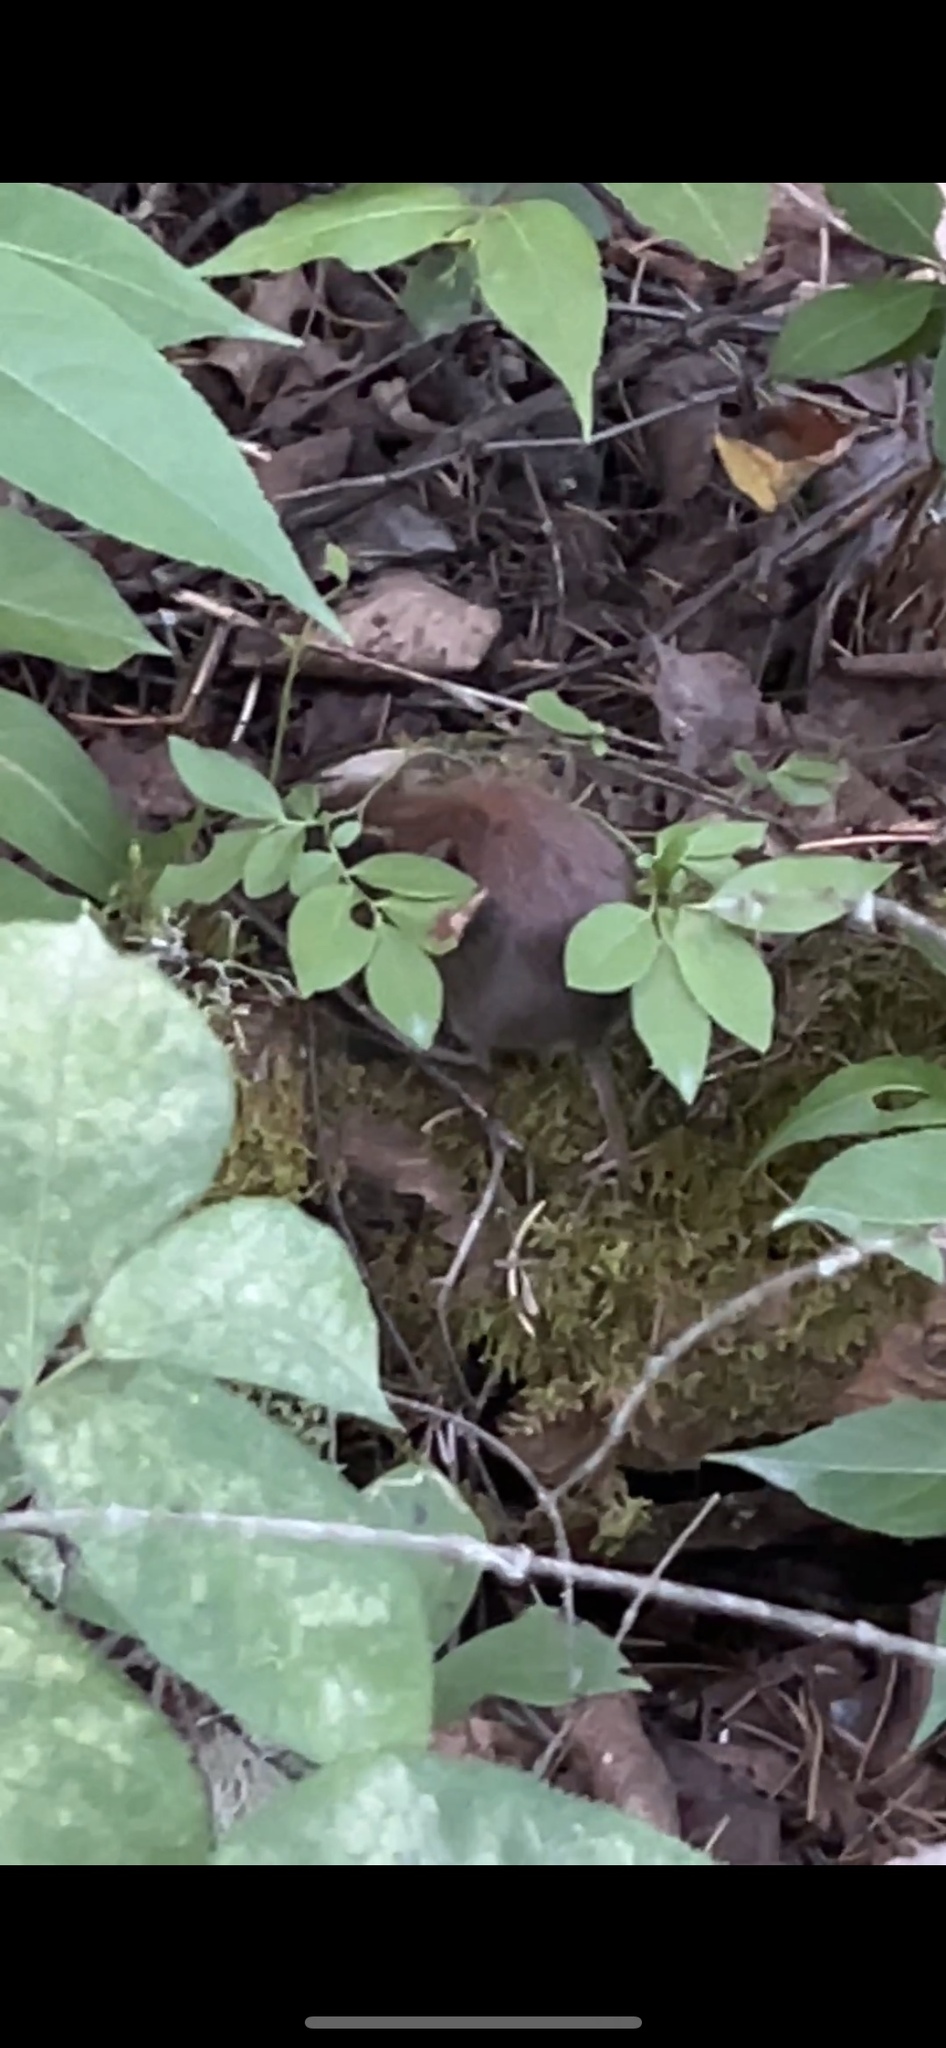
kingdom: Animalia
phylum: Chordata
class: Mammalia
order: Rodentia
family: Cricetidae
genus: Myodes
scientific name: Myodes gapperi
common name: Southern red-backed vole
